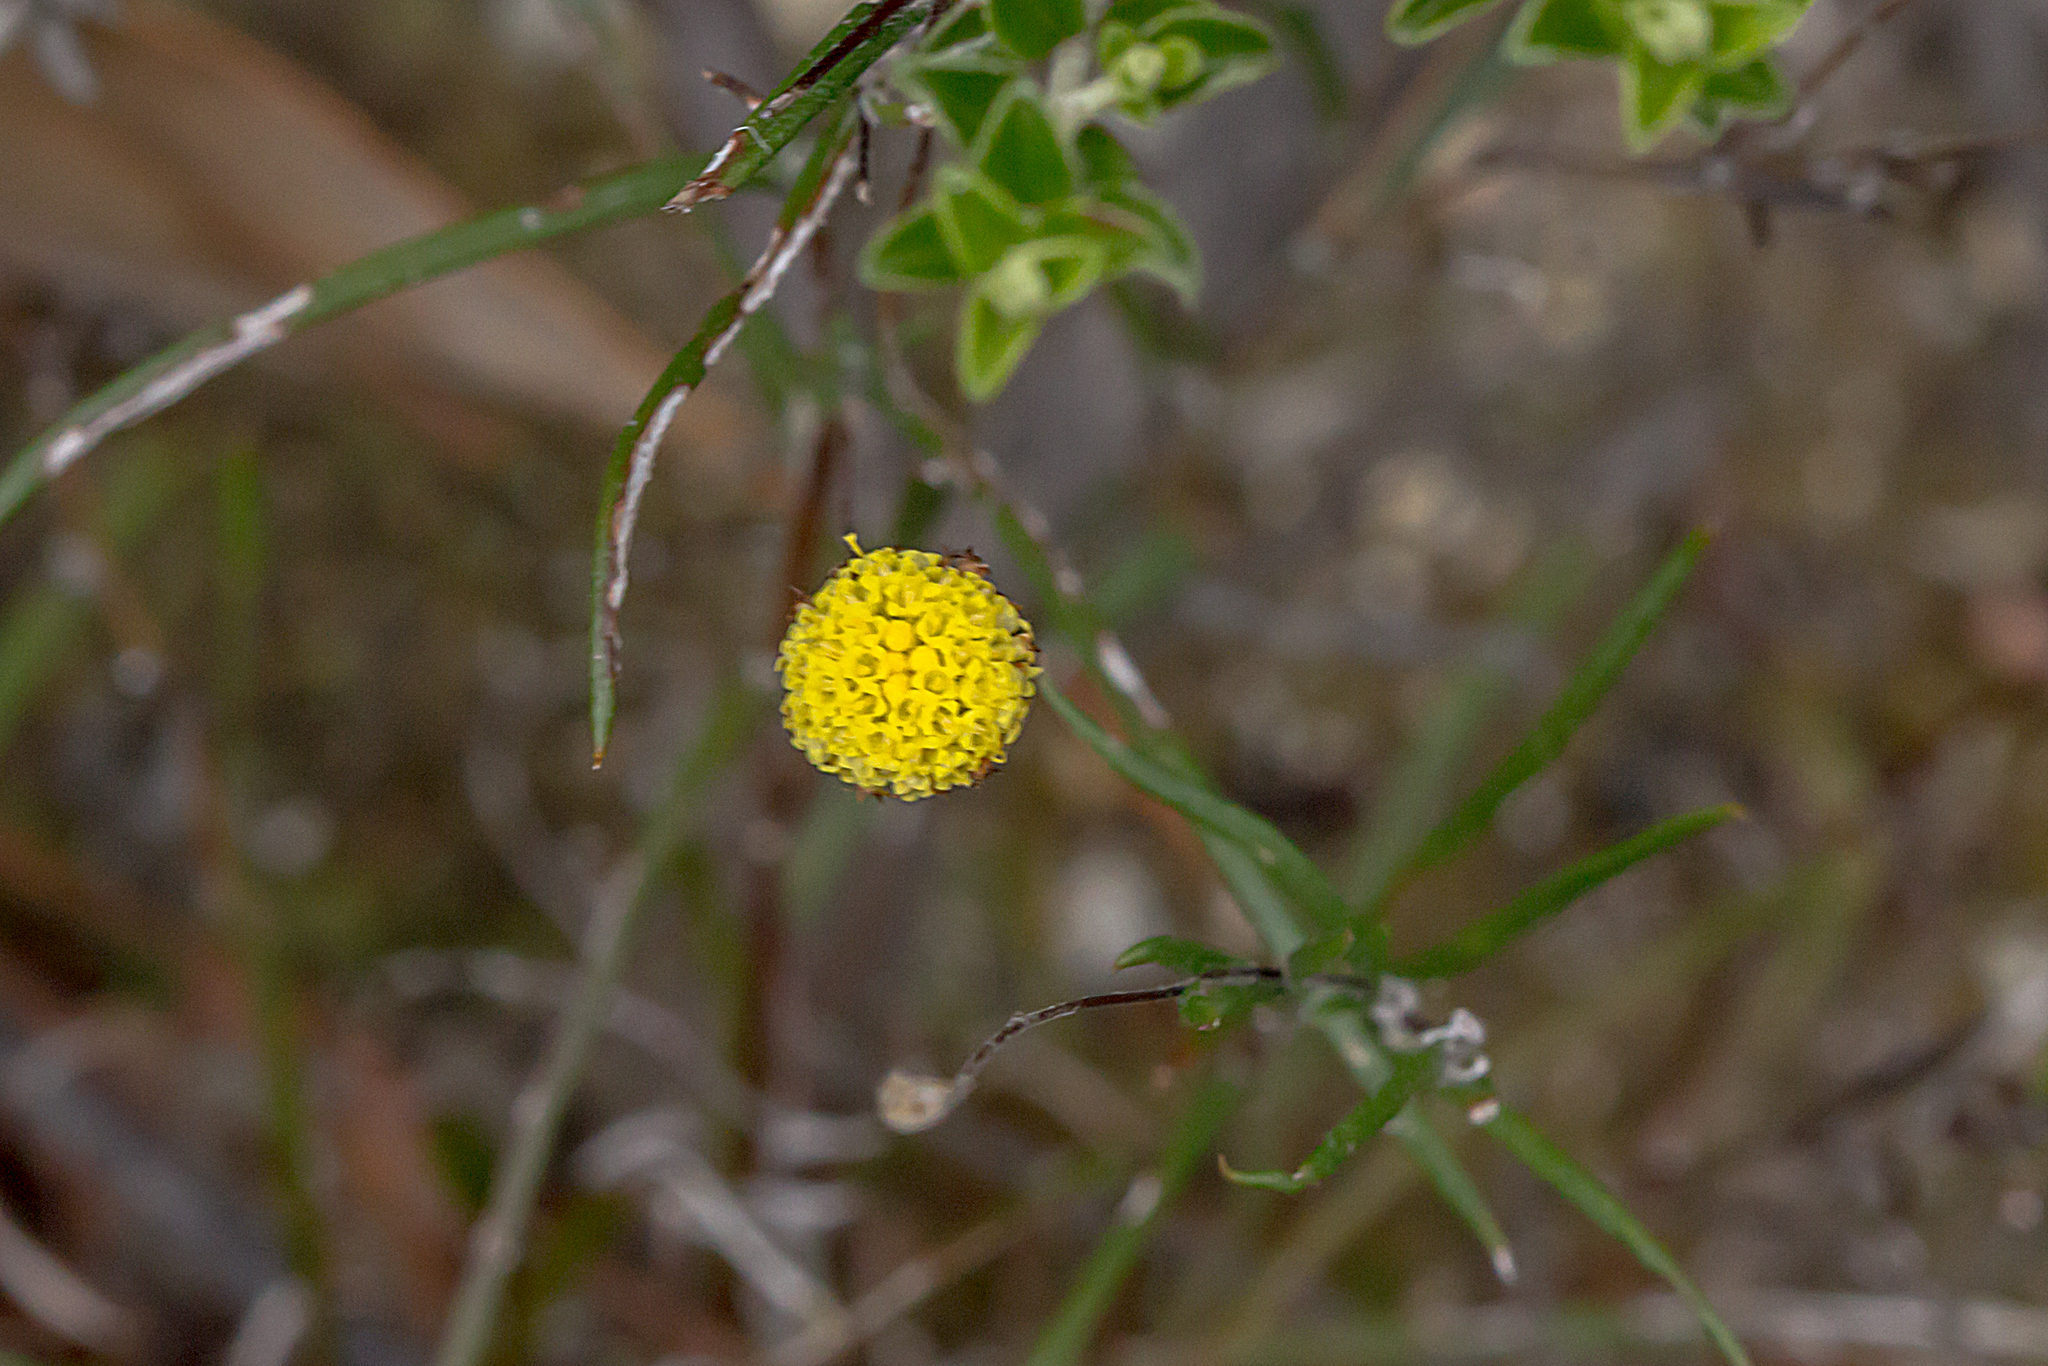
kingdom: Plantae
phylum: Tracheophyta
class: Magnoliopsida
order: Asterales
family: Asteraceae
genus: Leptorhynchos
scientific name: Leptorhynchos tenuifolius
